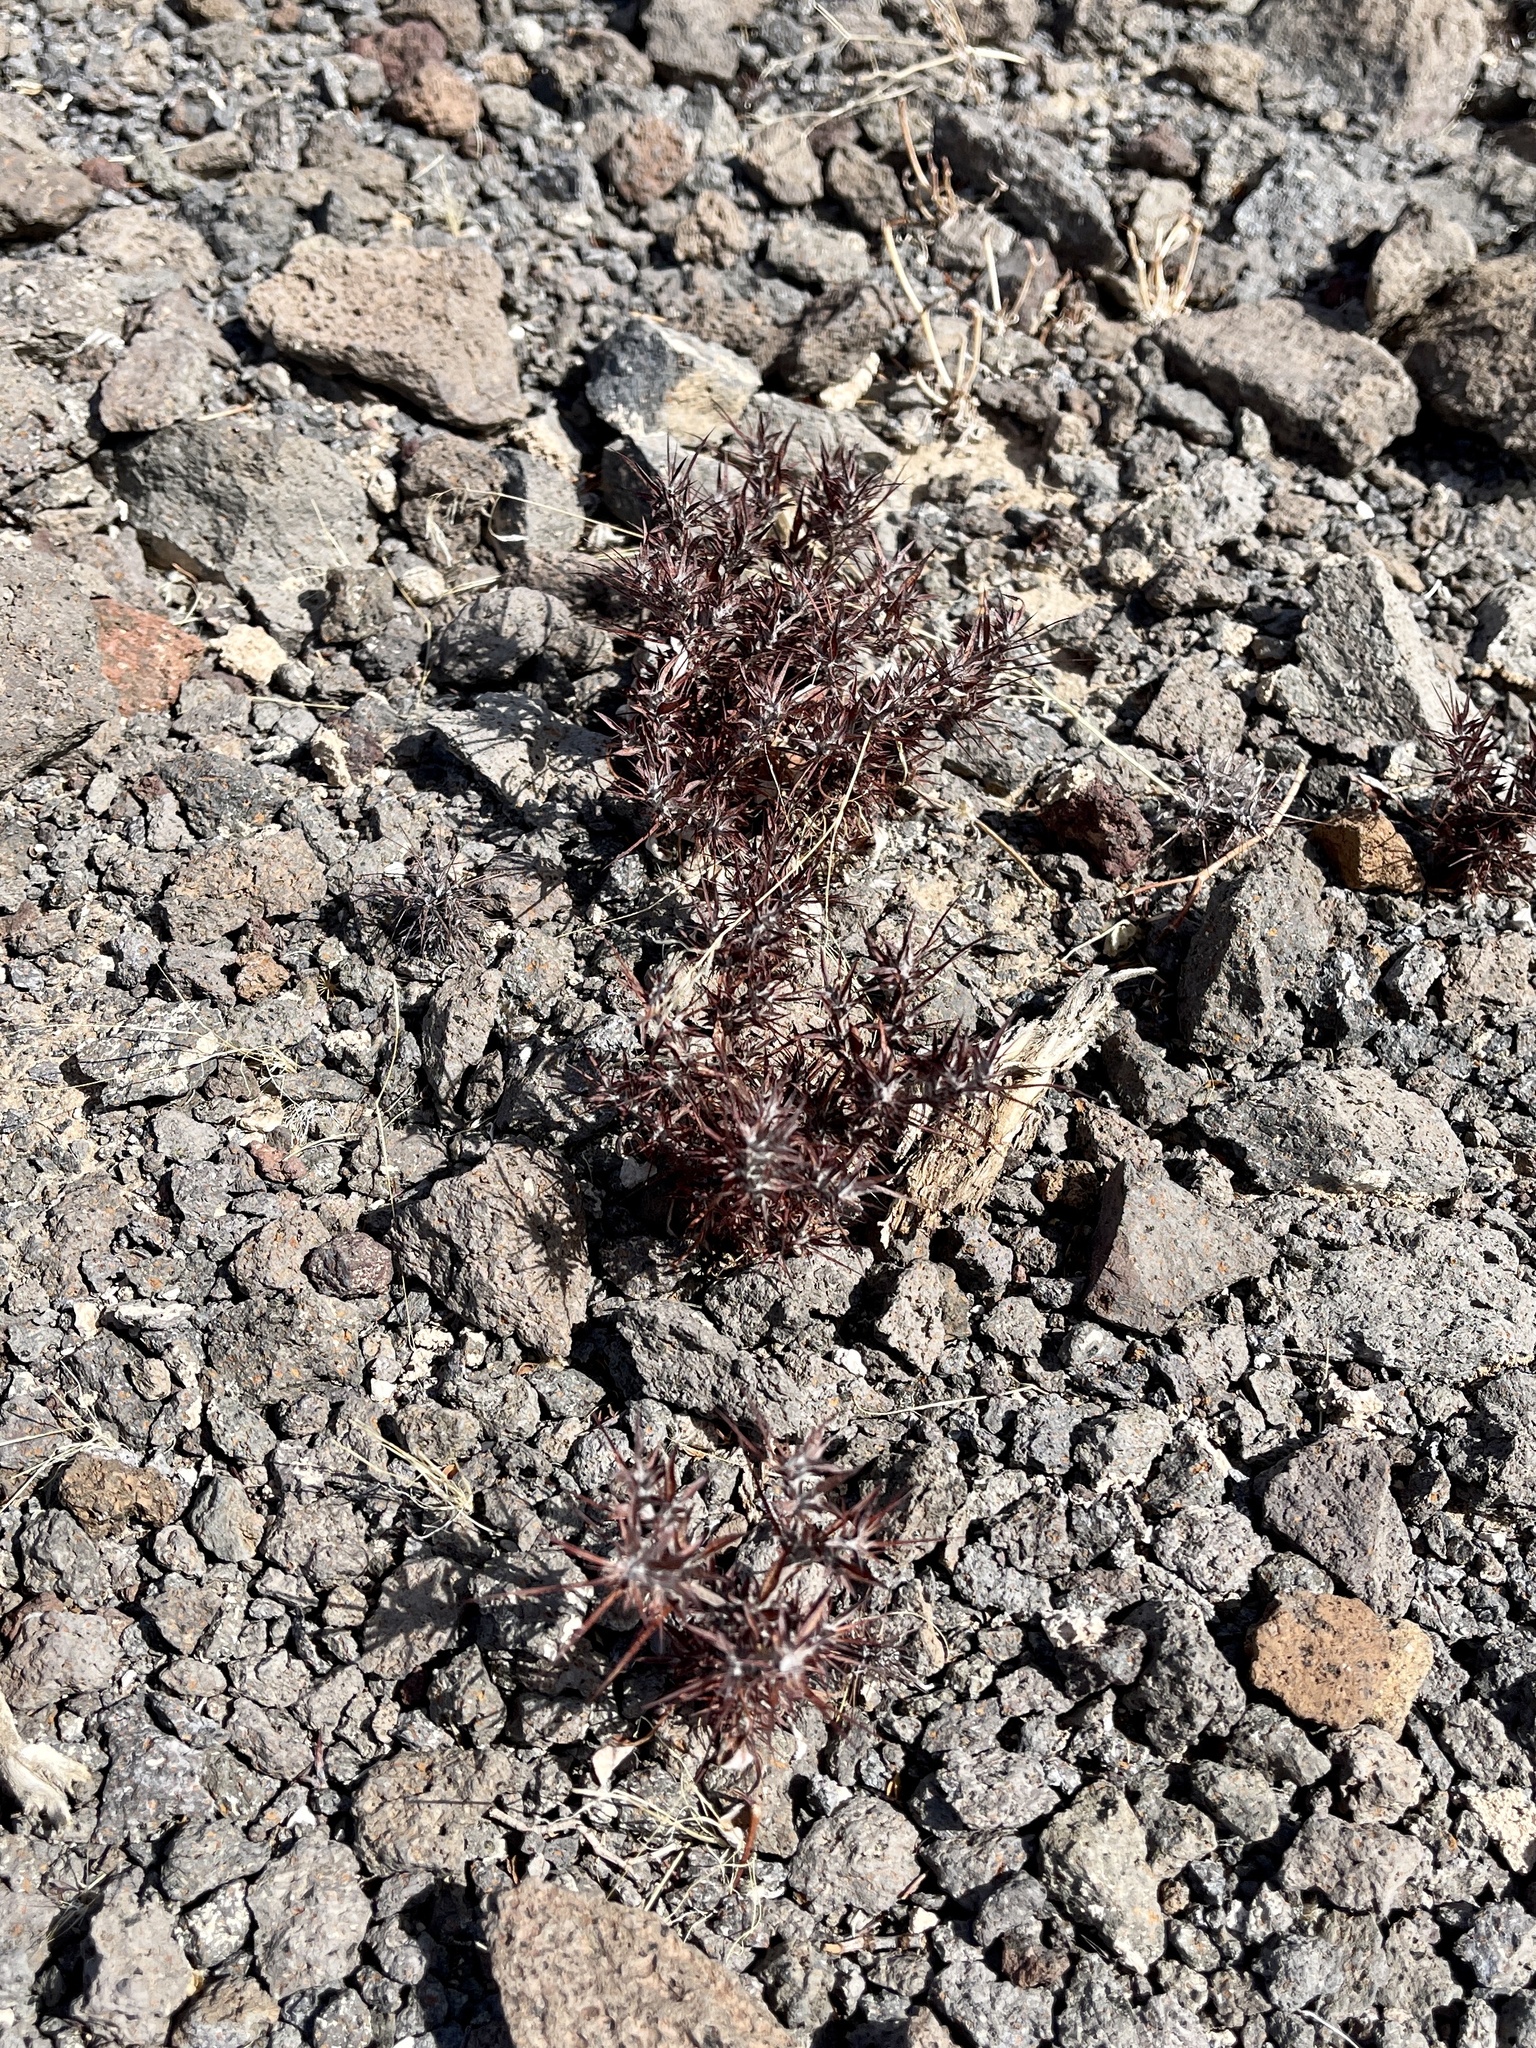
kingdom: Plantae
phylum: Tracheophyta
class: Magnoliopsida
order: Caryophyllales
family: Polygonaceae
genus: Chorizanthe
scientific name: Chorizanthe rigida
